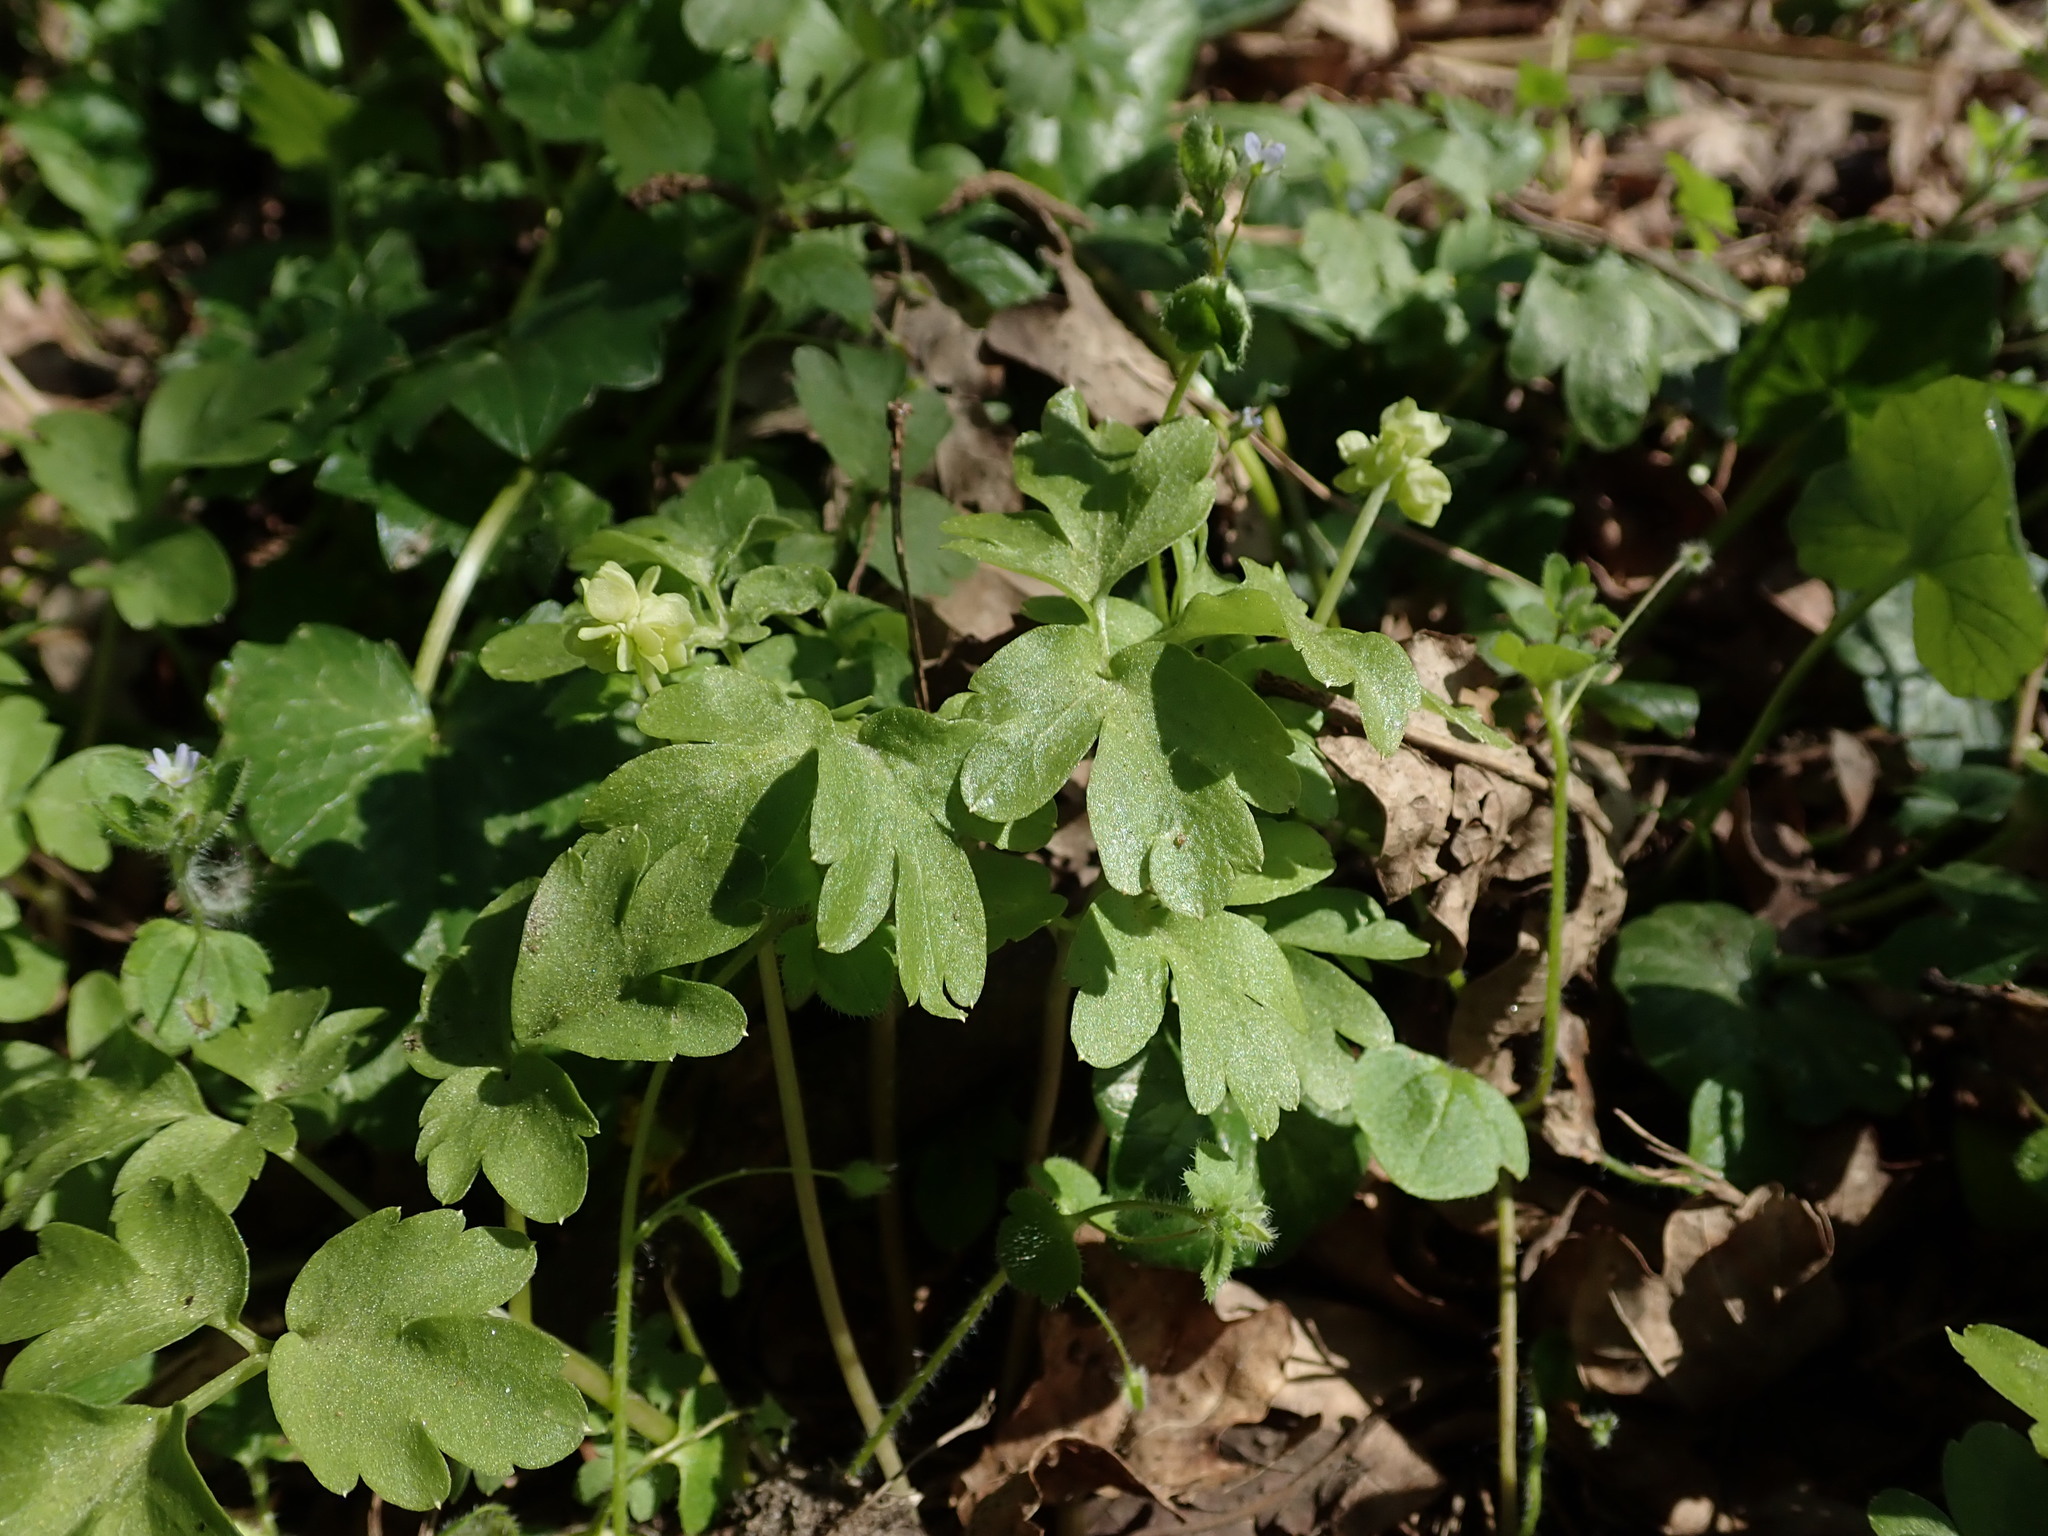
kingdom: Plantae
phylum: Tracheophyta
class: Magnoliopsida
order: Dipsacales
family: Viburnaceae
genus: Adoxa
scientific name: Adoxa moschatellina
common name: Moschatel
